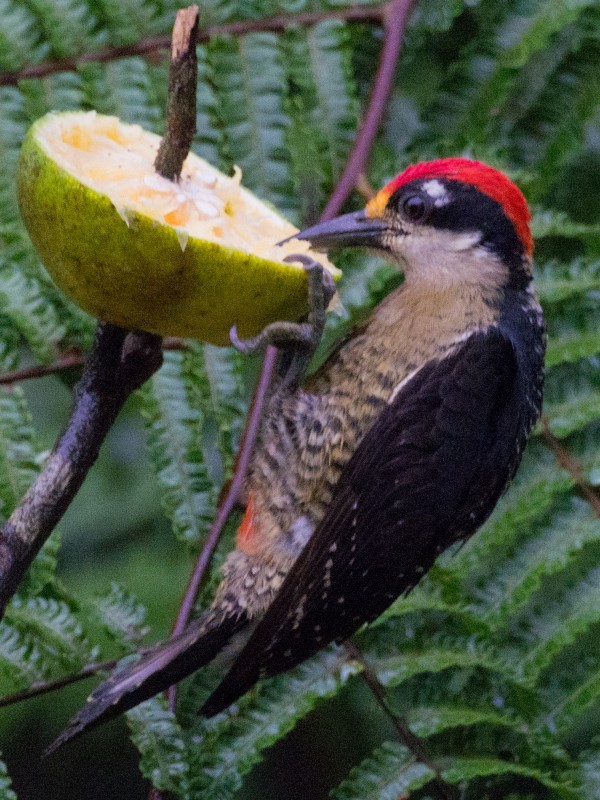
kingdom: Animalia
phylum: Chordata
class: Aves
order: Piciformes
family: Picidae
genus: Melanerpes
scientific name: Melanerpes pucherani
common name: Black-cheeked woodpecker
